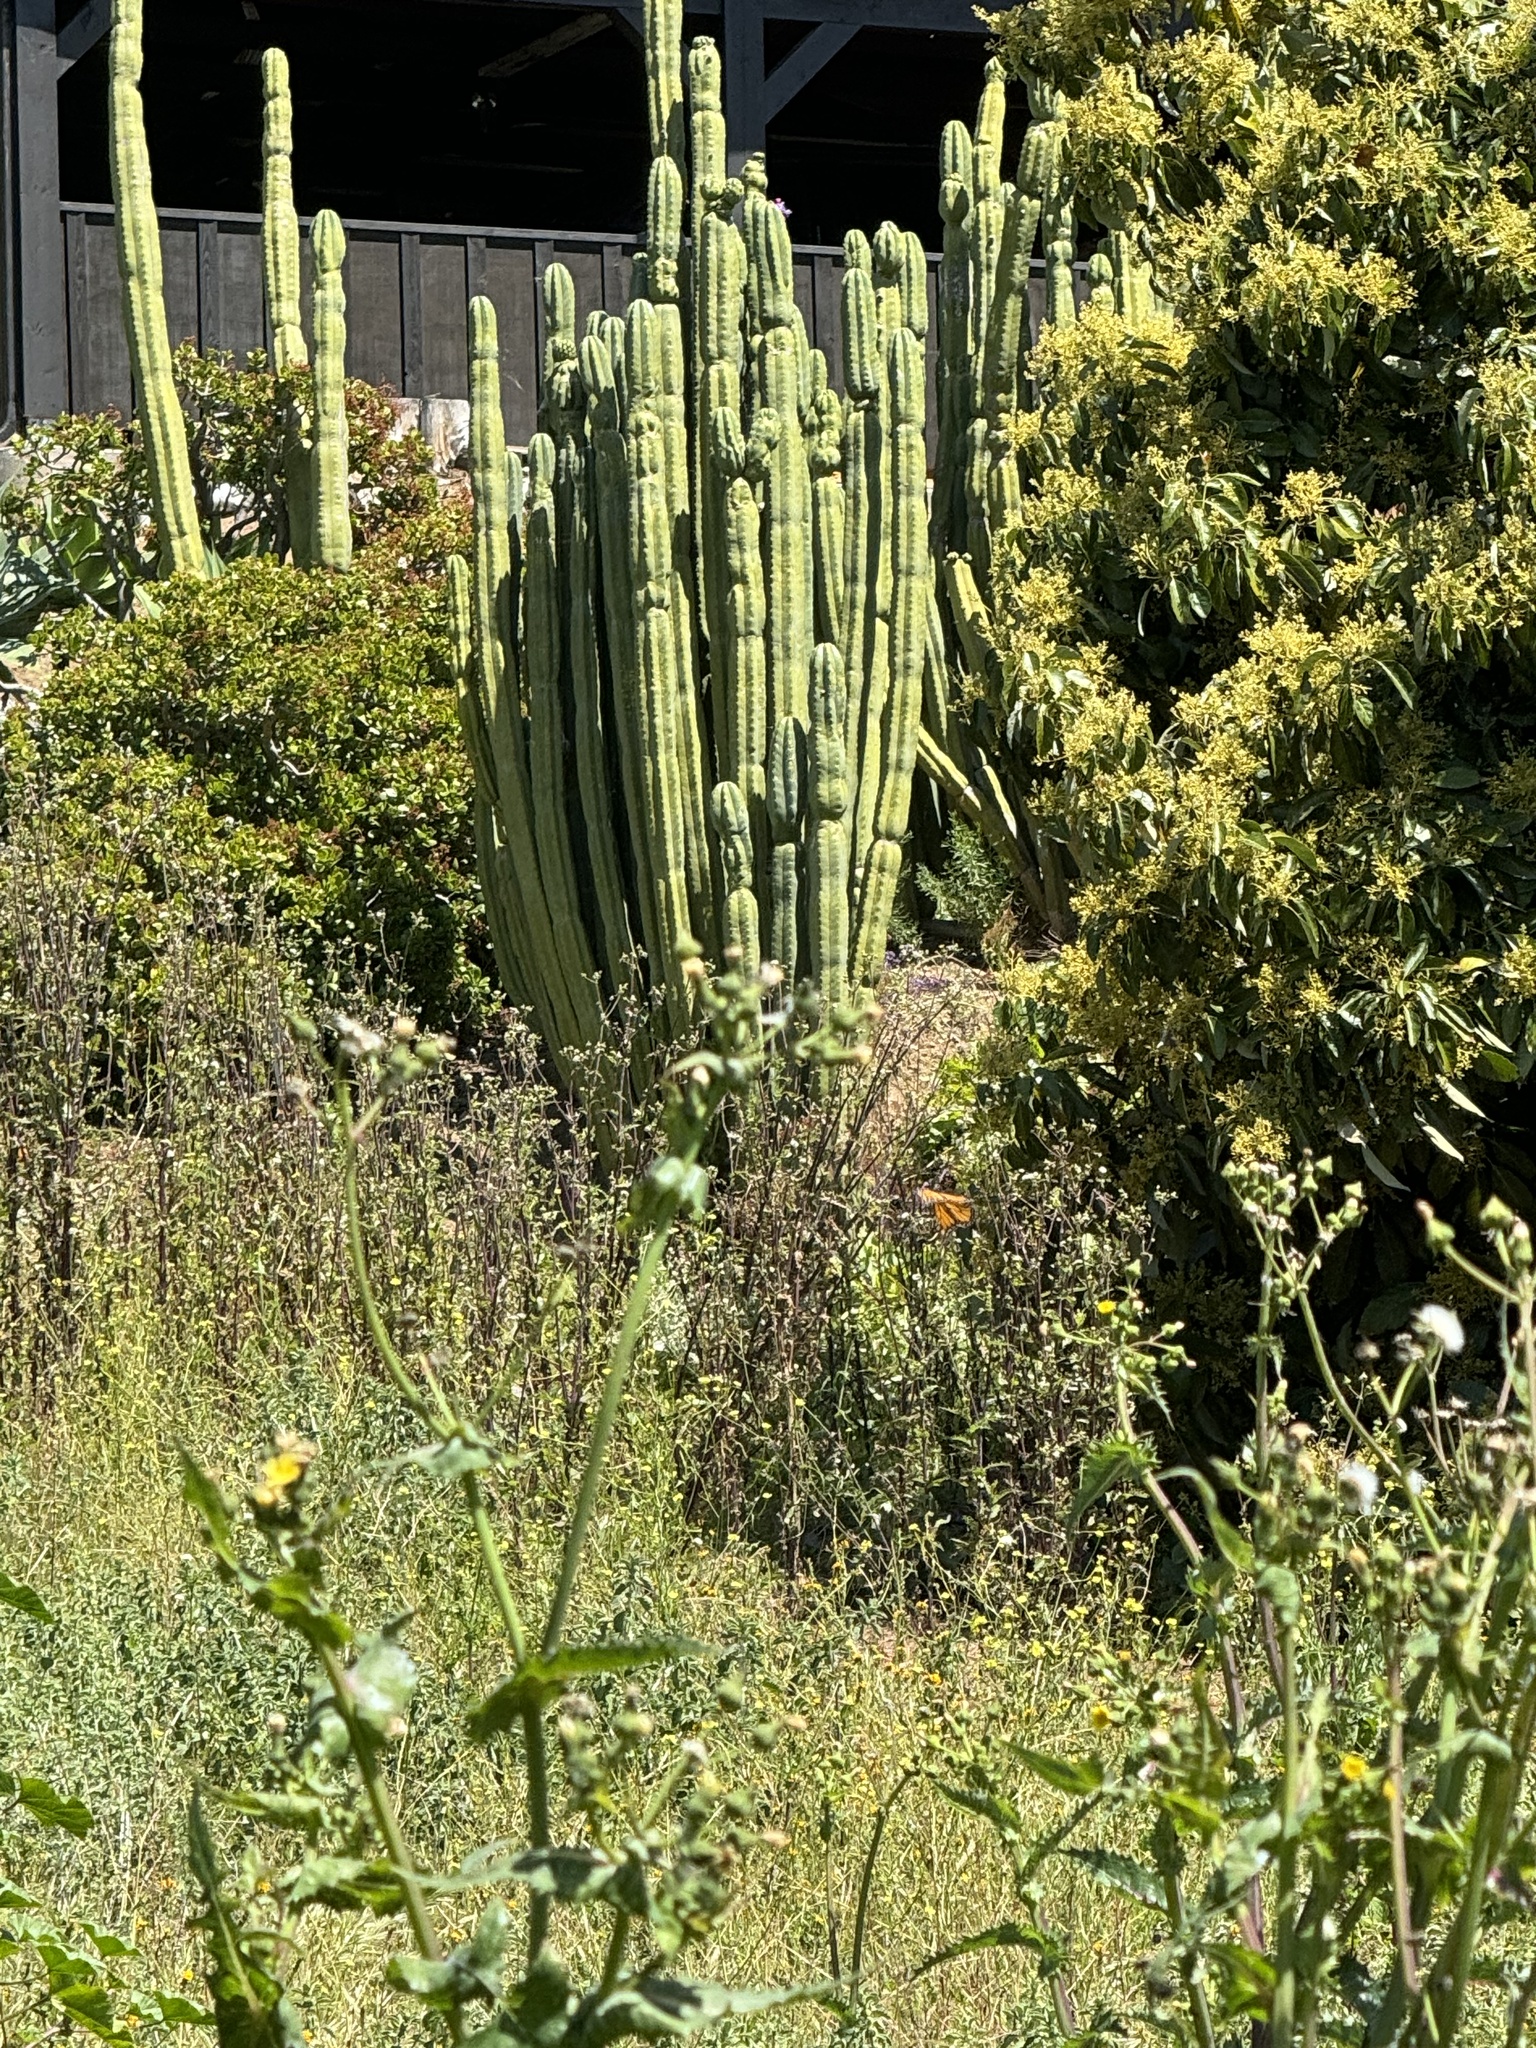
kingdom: Animalia
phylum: Arthropoda
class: Insecta
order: Lepidoptera
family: Nymphalidae
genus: Danaus
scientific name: Danaus plexippus
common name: Monarch
